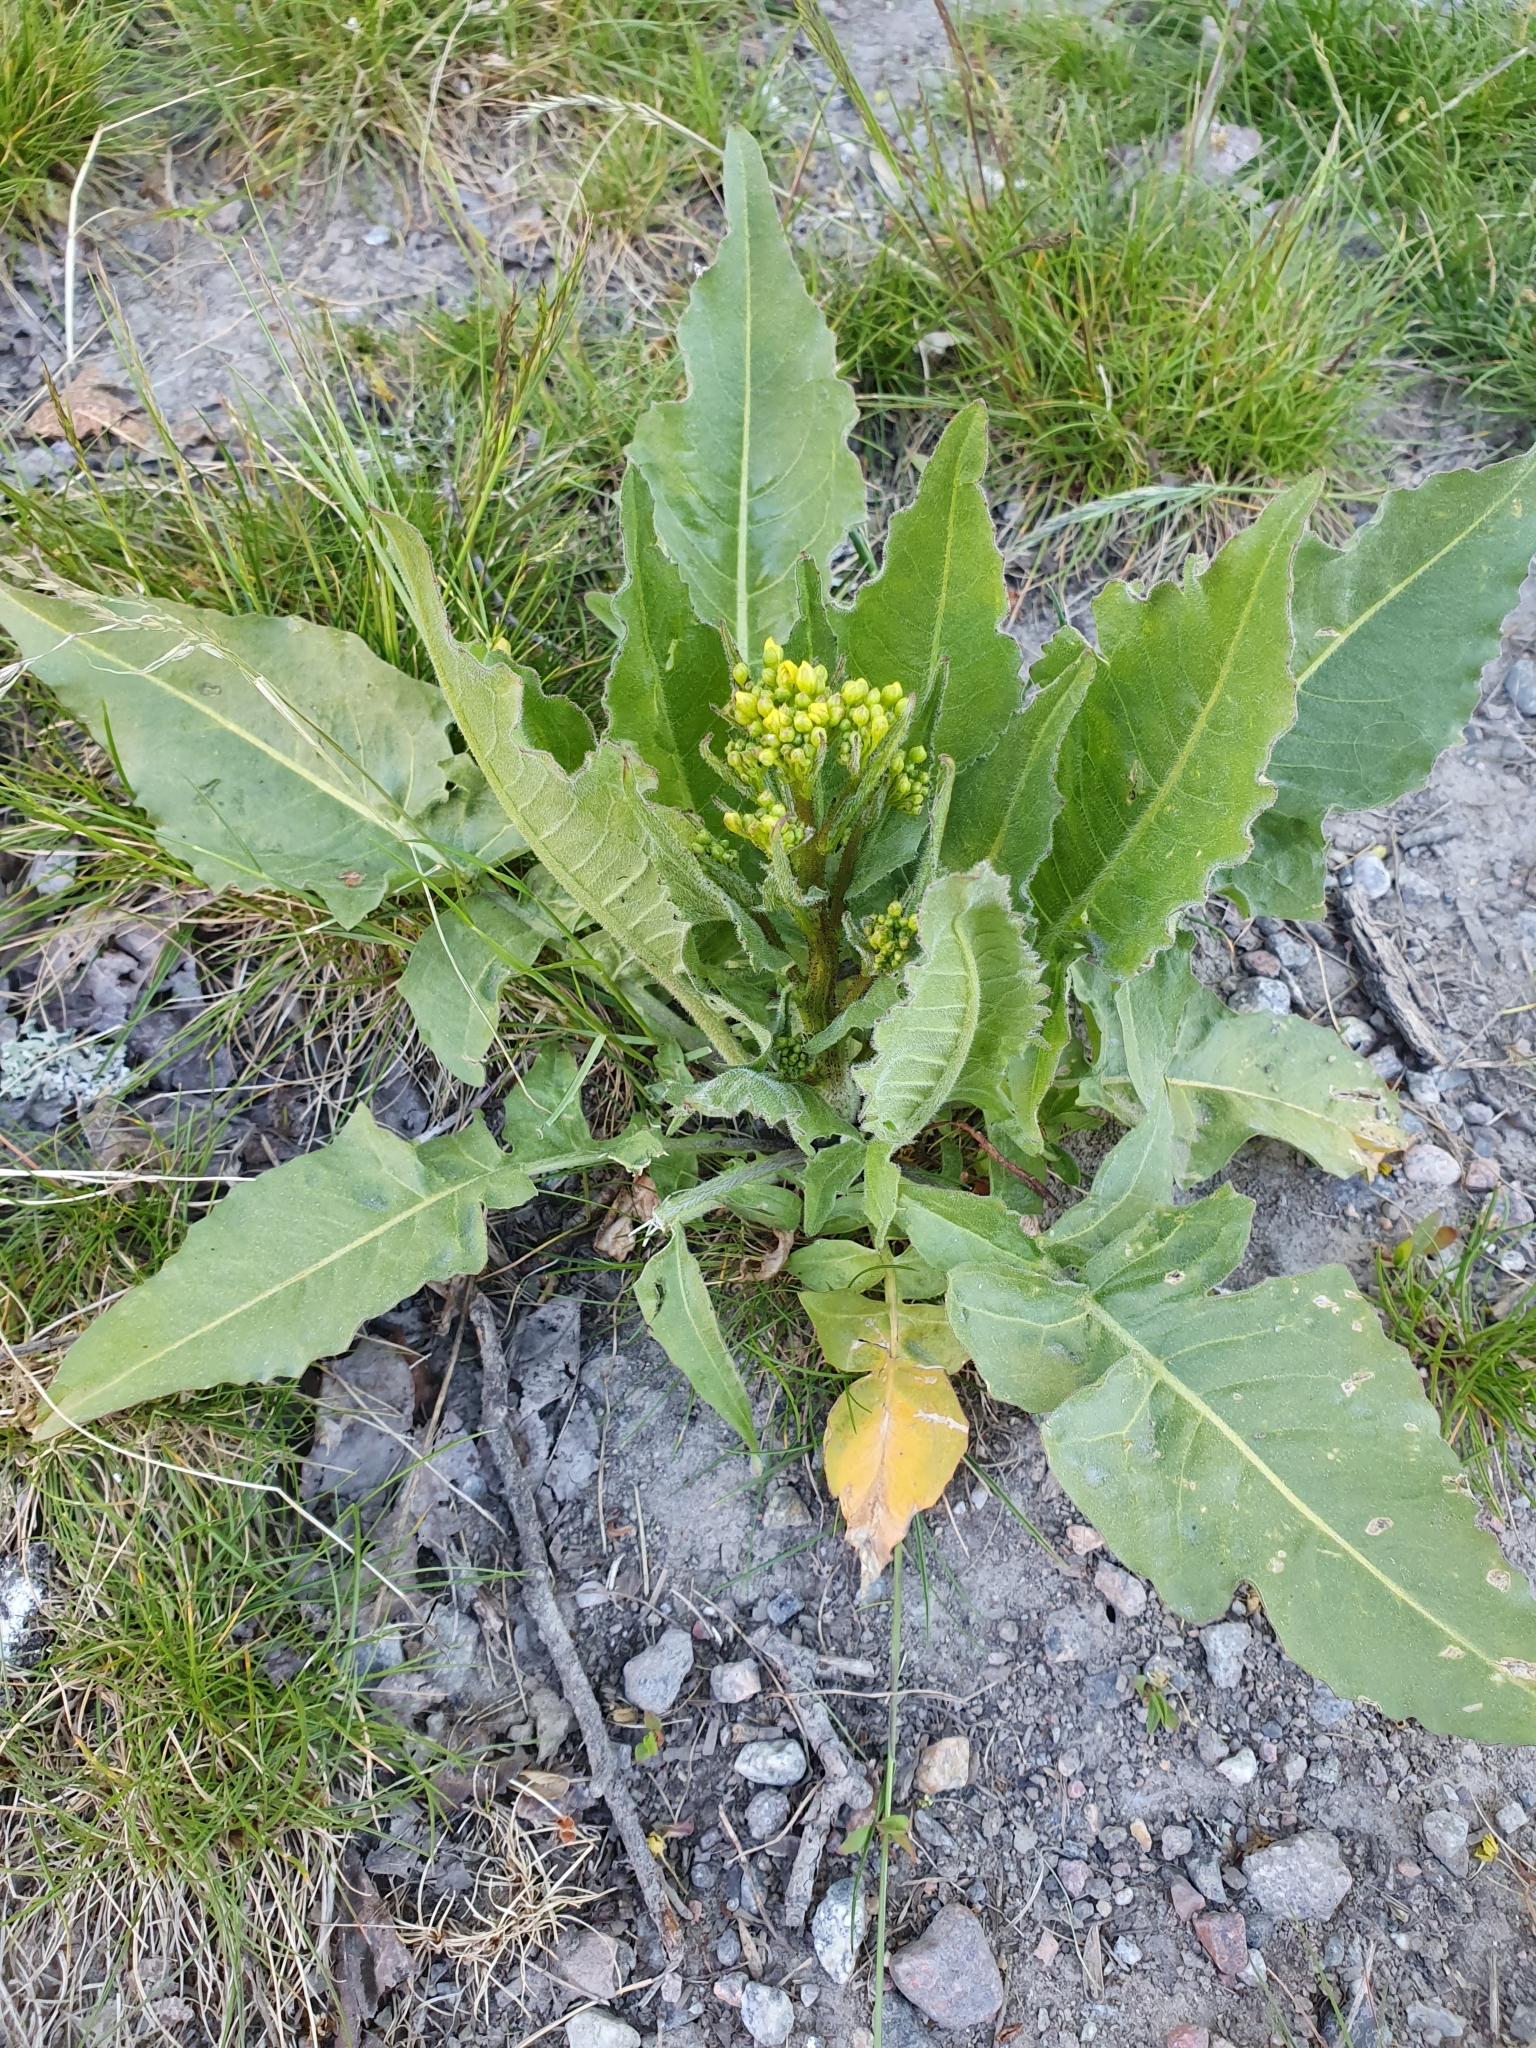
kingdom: Plantae
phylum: Tracheophyta
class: Magnoliopsida
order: Brassicales
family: Brassicaceae
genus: Bunias
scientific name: Bunias orientalis
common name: Warty-cabbage
